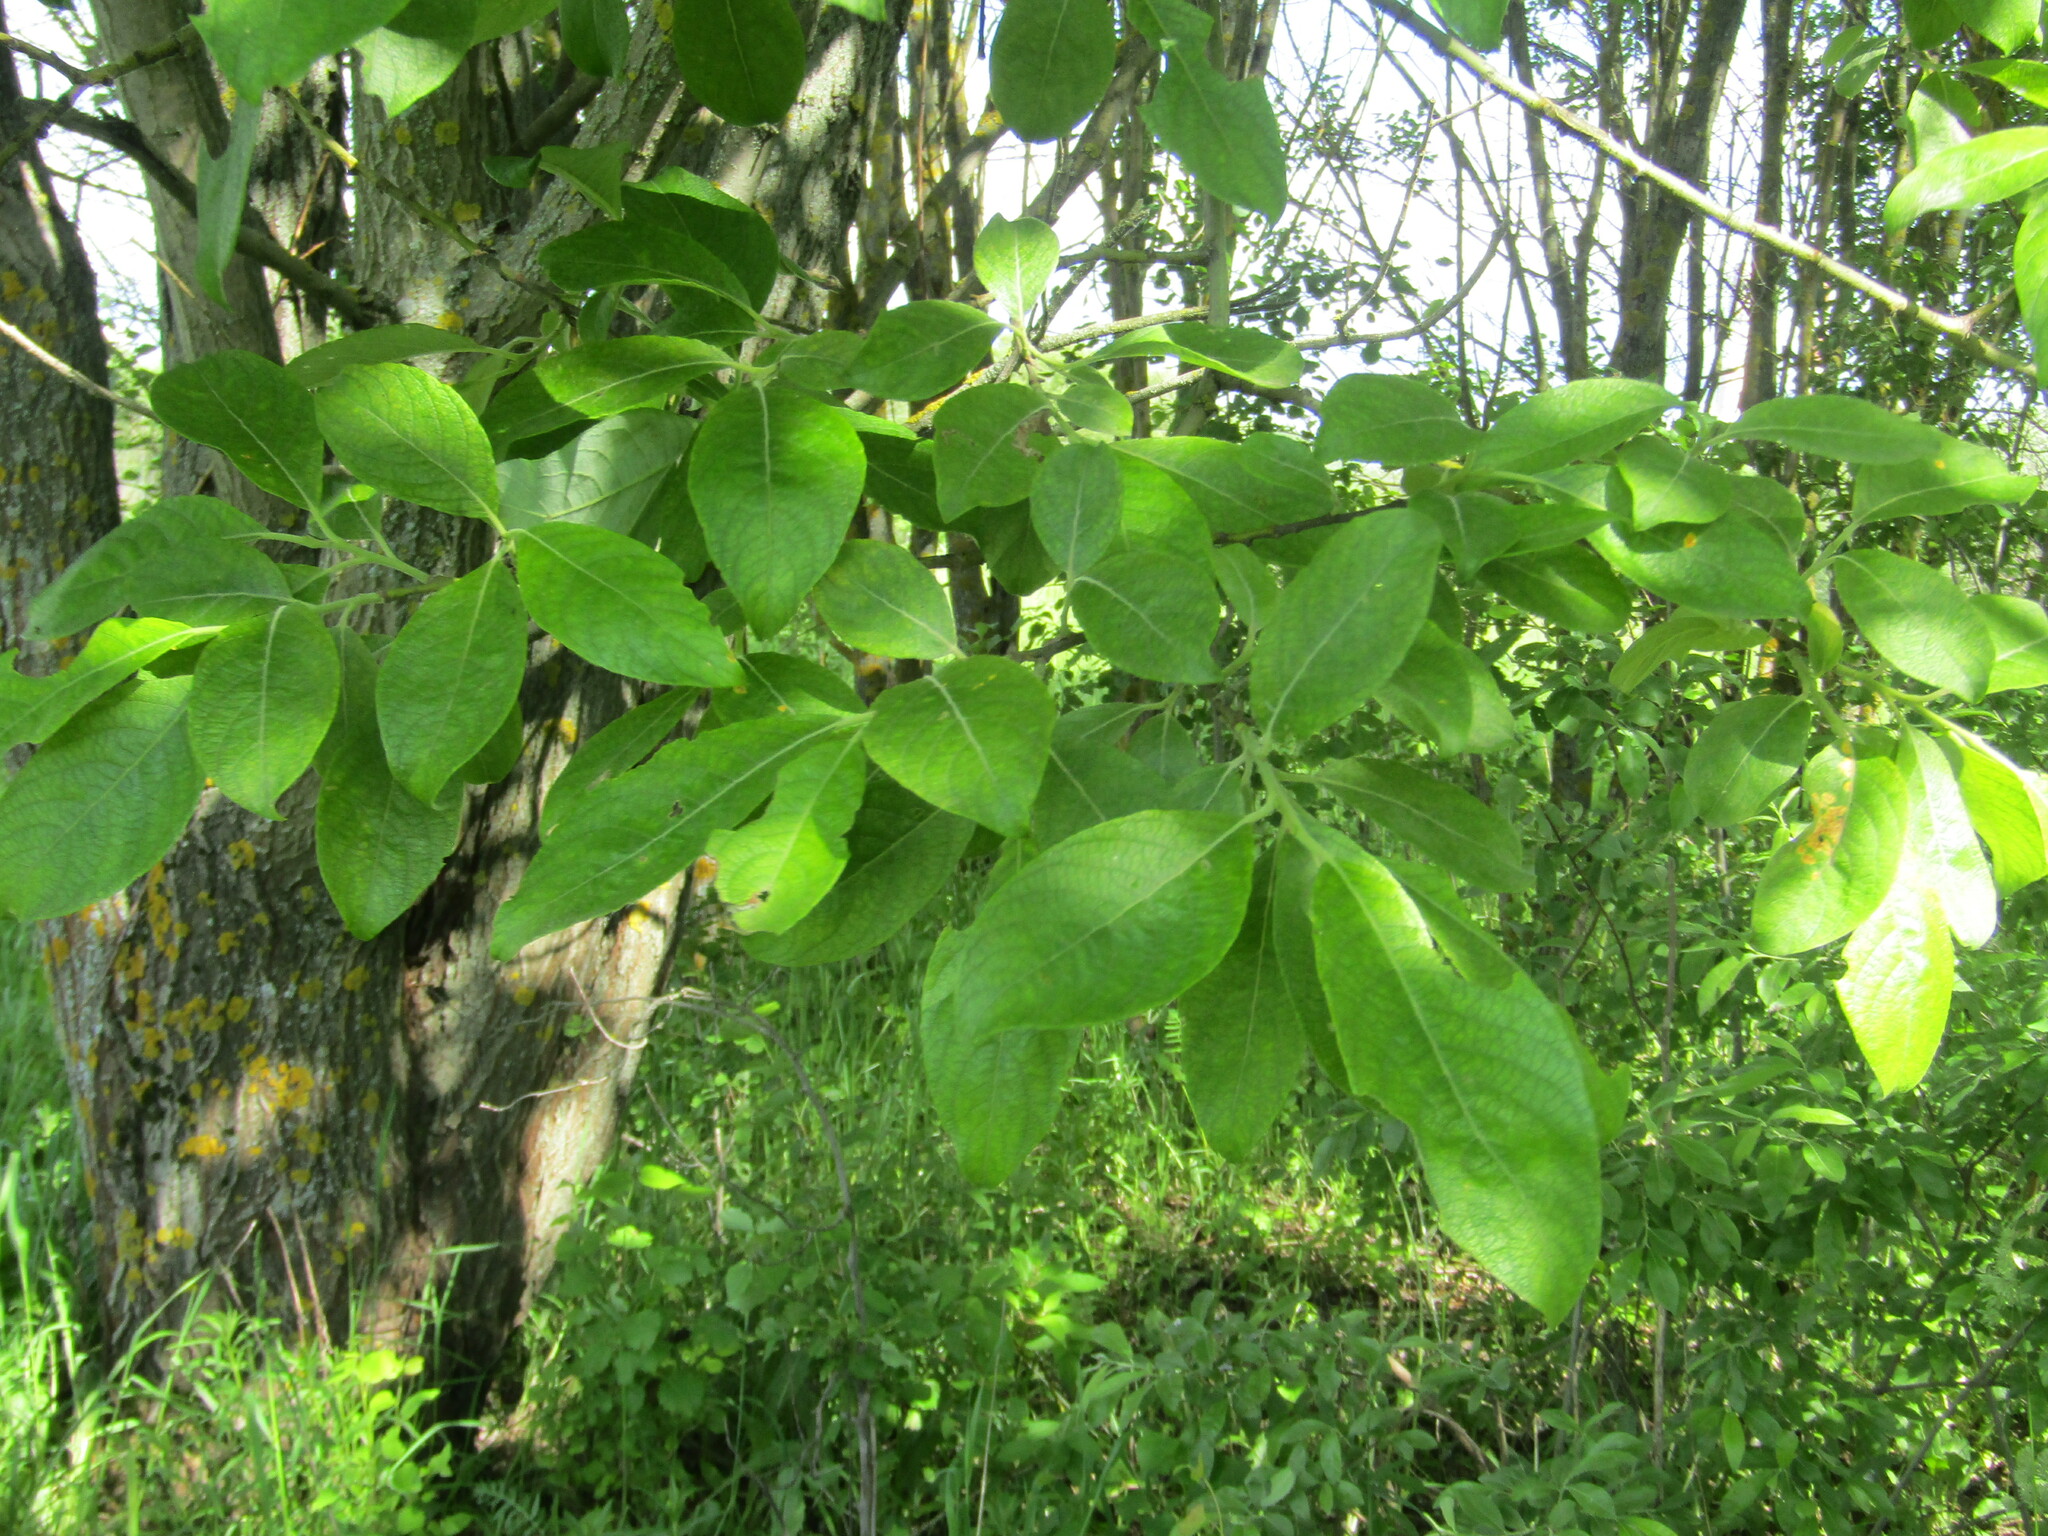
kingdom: Plantae
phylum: Tracheophyta
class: Magnoliopsida
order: Malpighiales
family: Salicaceae
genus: Salix
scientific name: Salix caprea
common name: Goat willow
